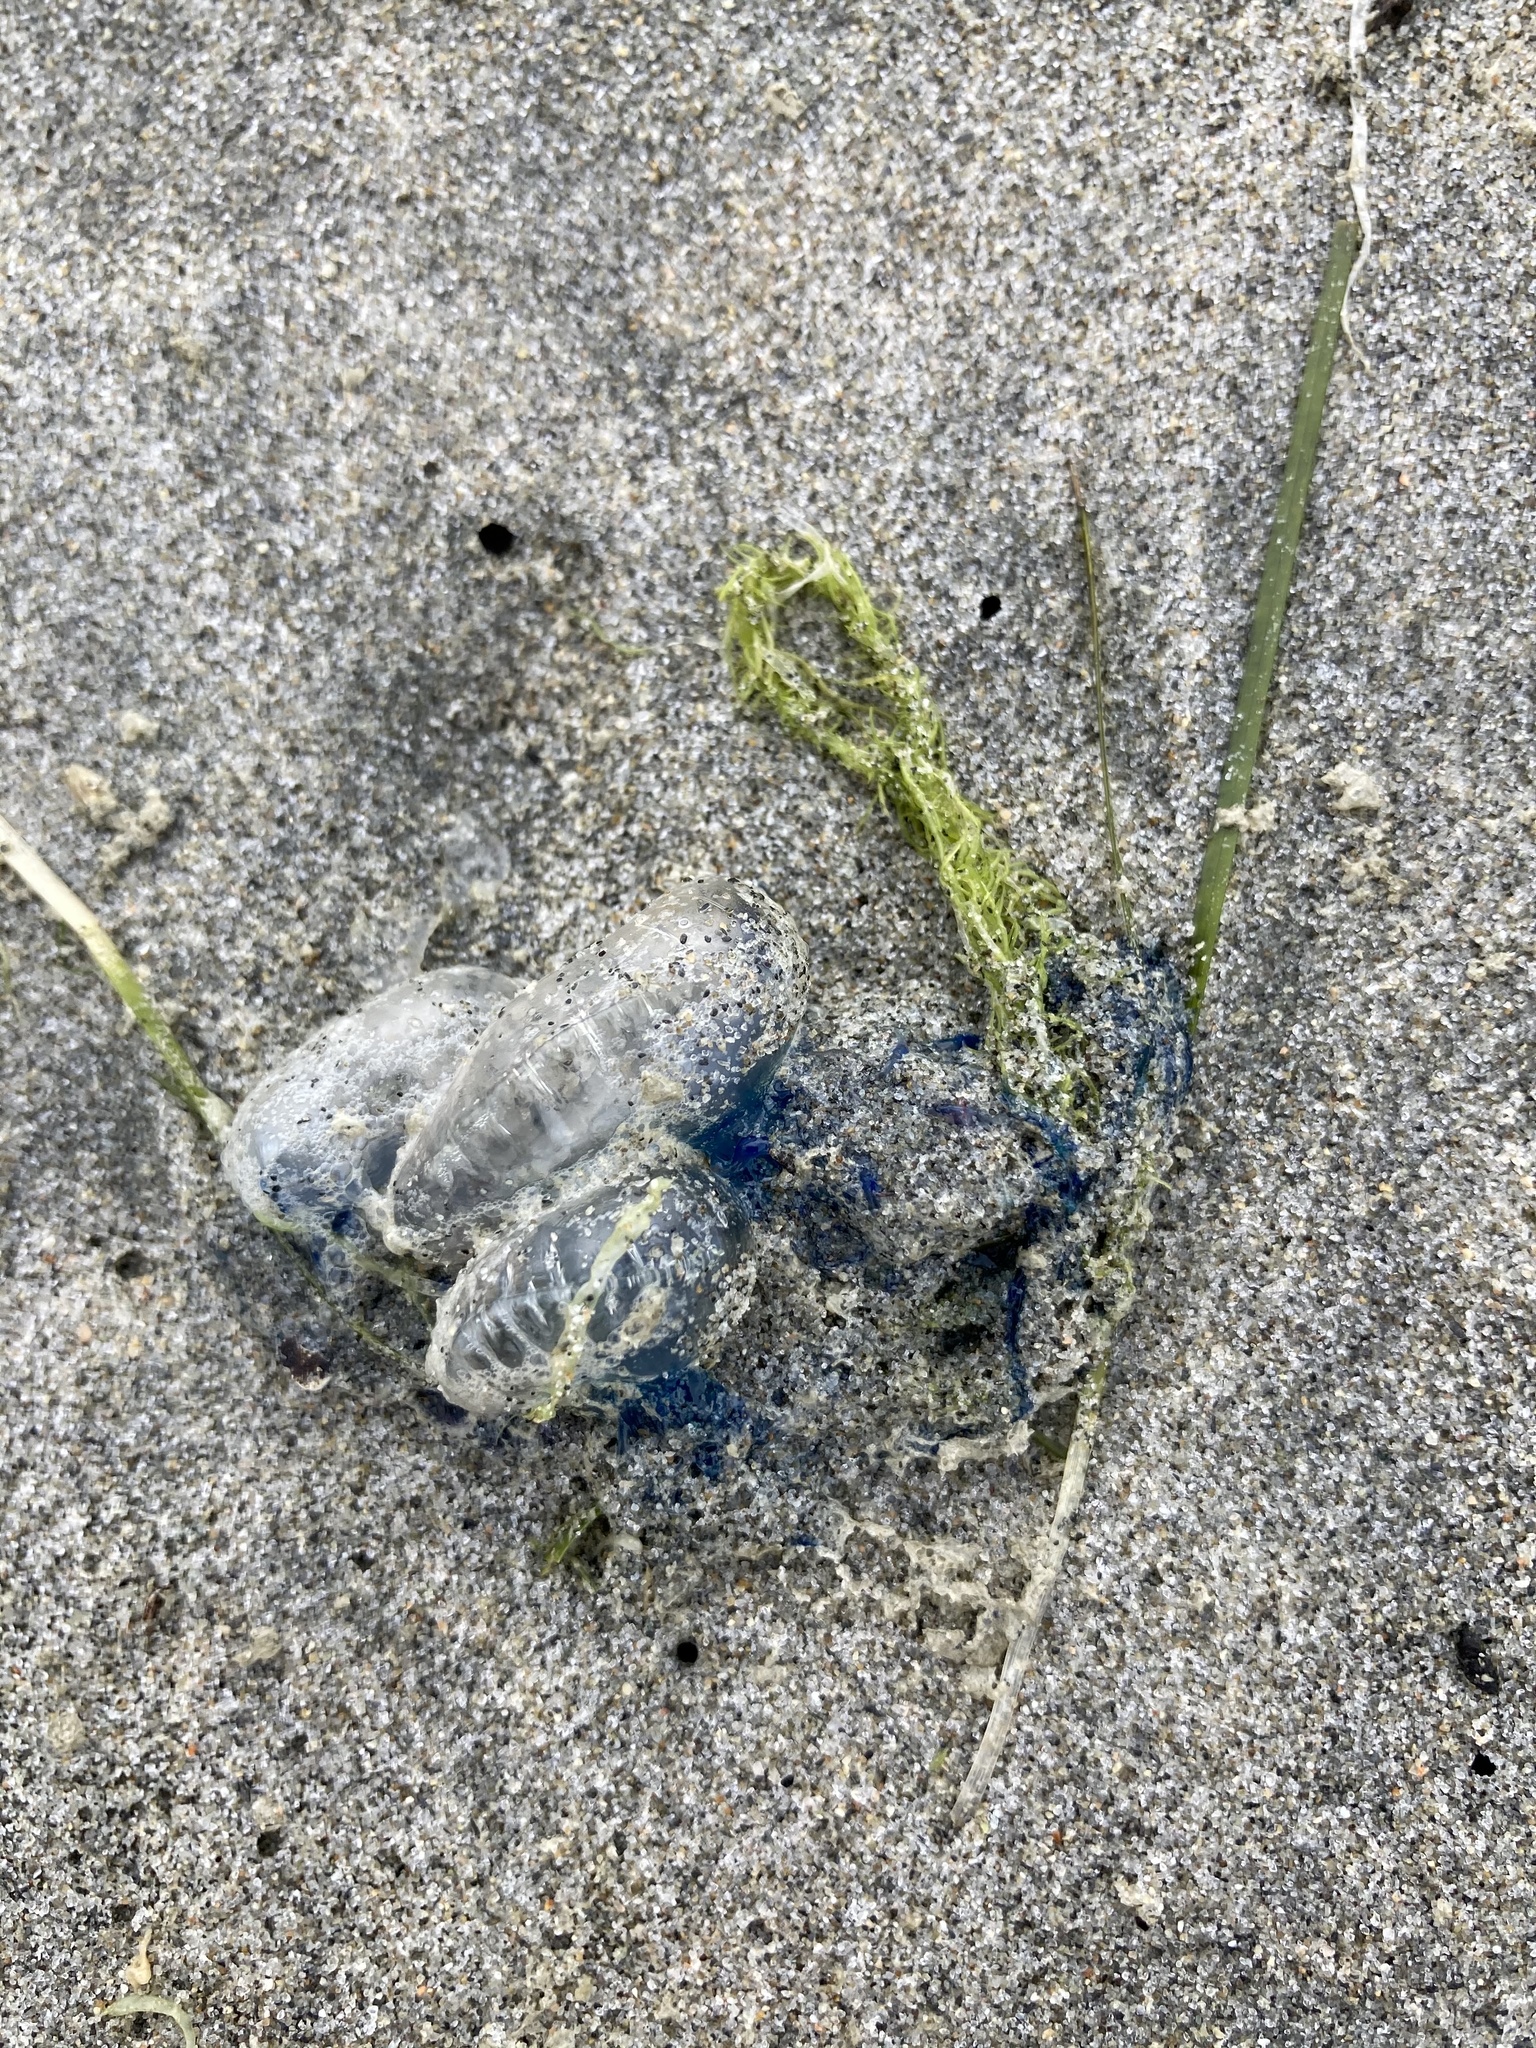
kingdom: Animalia
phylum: Cnidaria
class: Hydrozoa
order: Siphonophorae
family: Physaliidae
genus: Physalia
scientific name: Physalia physalis
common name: Portuguese man-of-war
